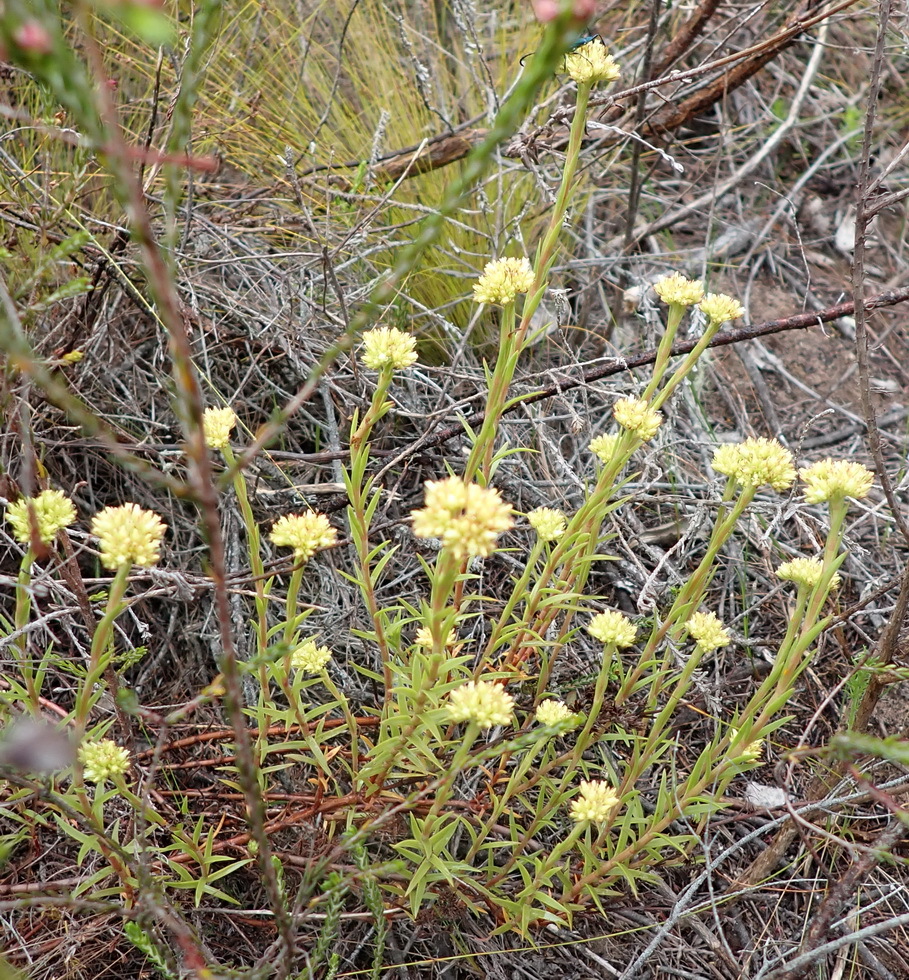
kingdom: Plantae
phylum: Tracheophyta
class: Magnoliopsida
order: Saxifragales
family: Crassulaceae
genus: Crassula
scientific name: Crassula subulata
